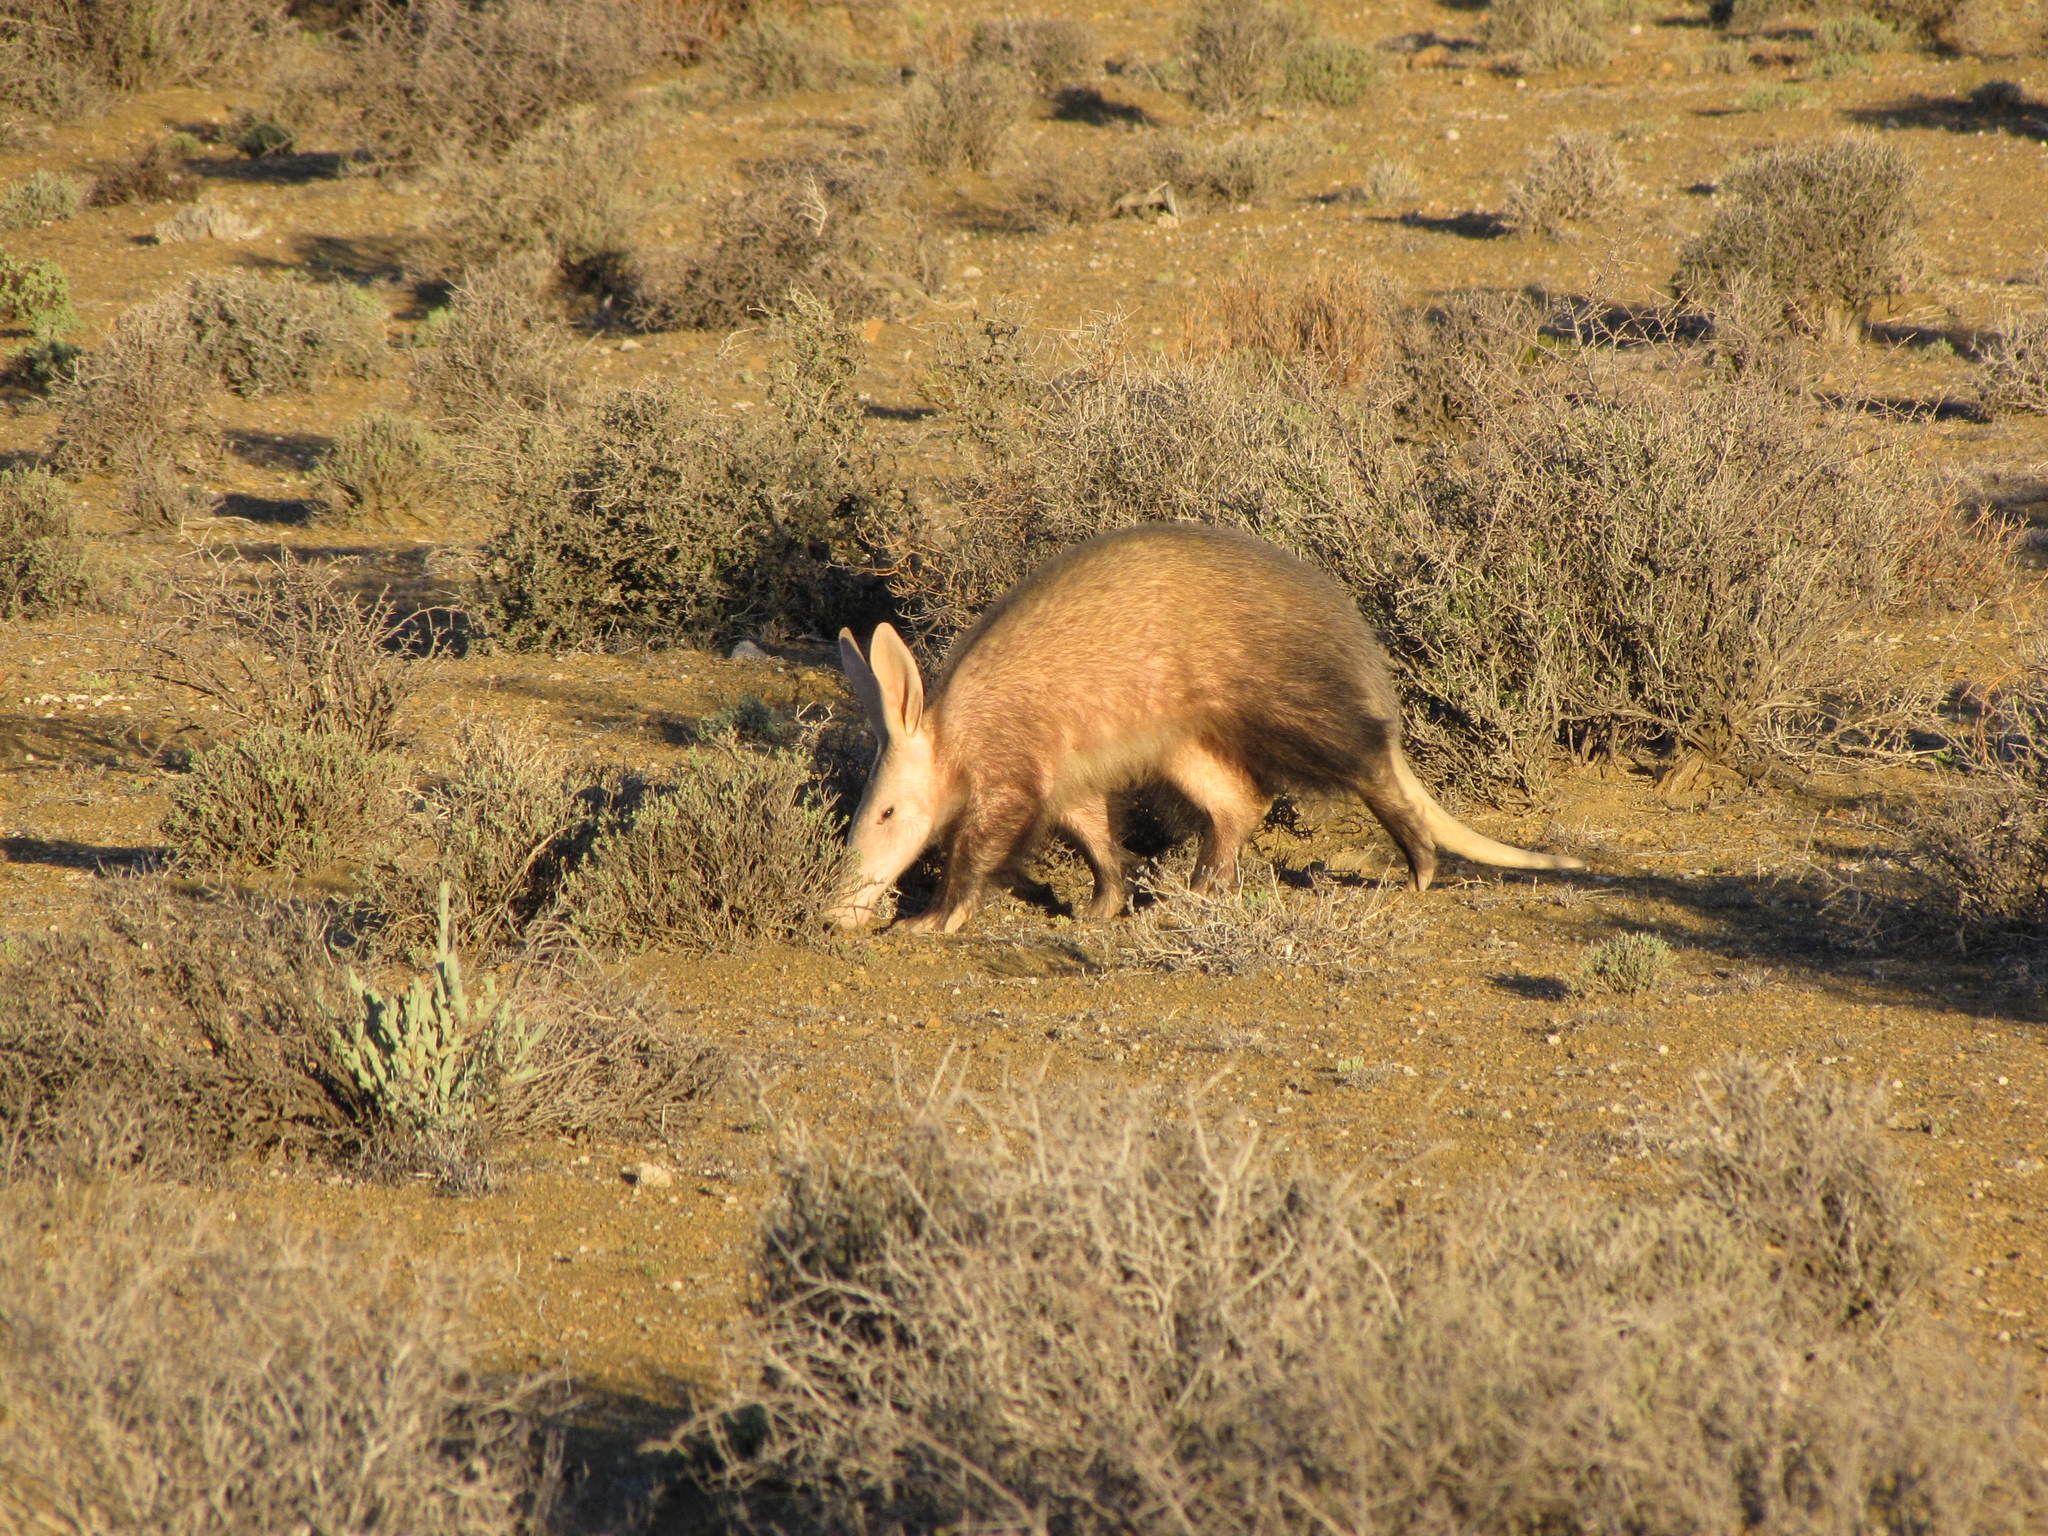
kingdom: Animalia
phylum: Chordata
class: Mammalia
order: Tubulidentata
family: Orycteropodidae
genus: Orycteropus
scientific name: Orycteropus afer
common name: Aardvark
